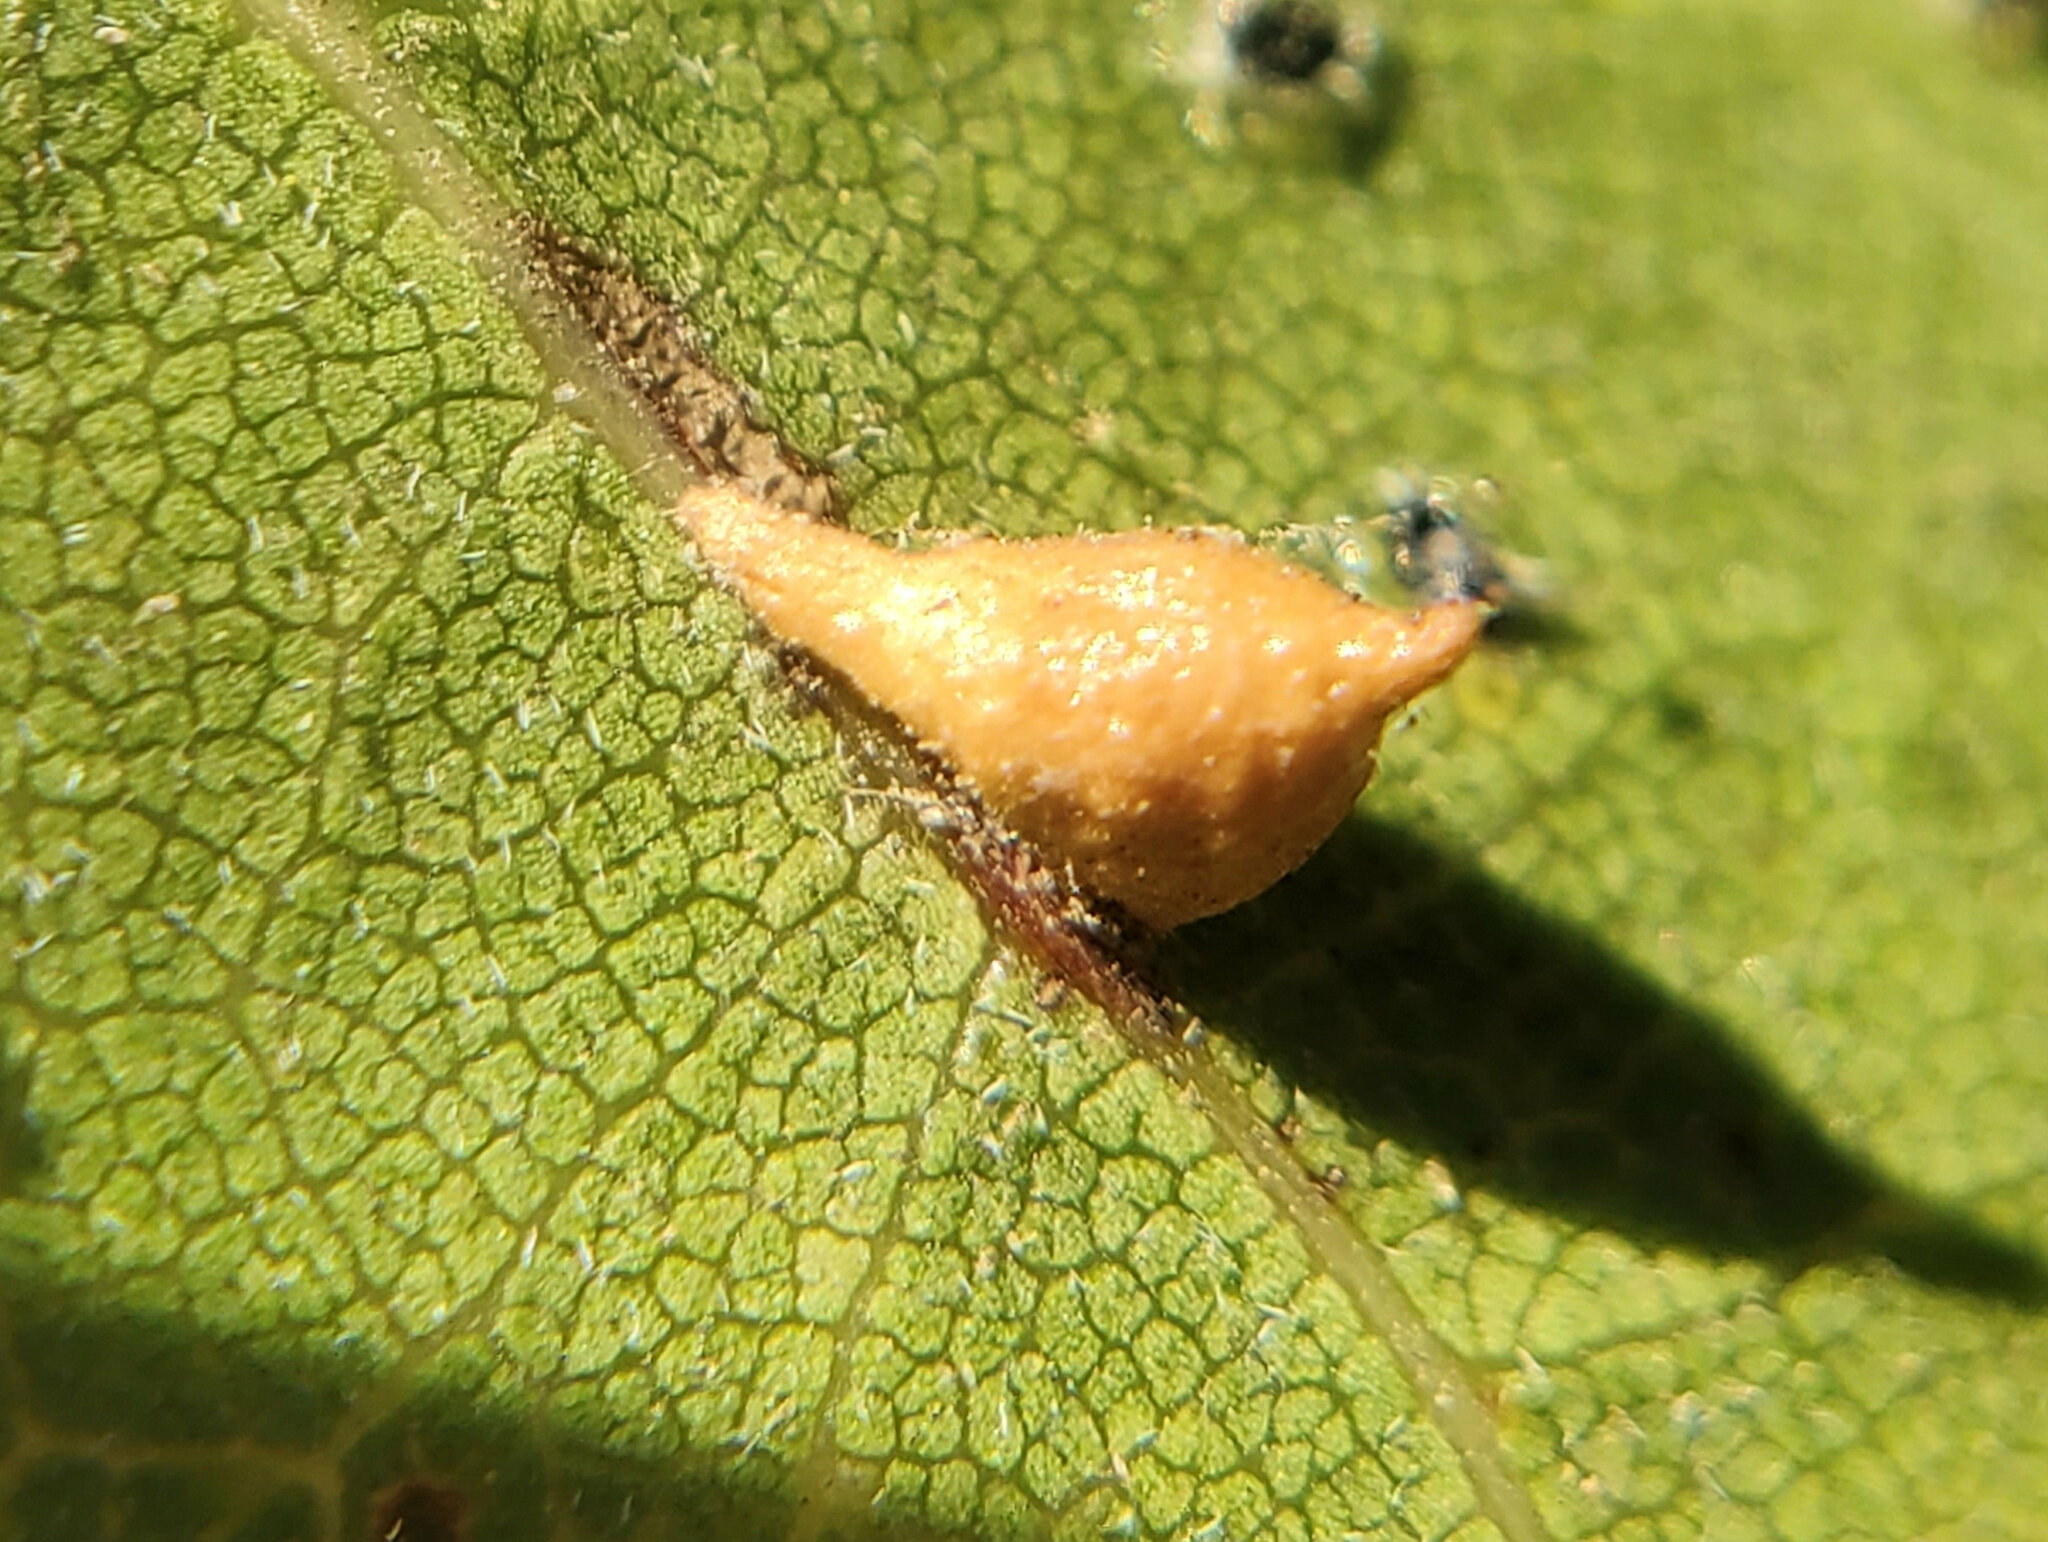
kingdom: Animalia
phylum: Arthropoda
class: Insecta
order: Hymenoptera
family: Cynipidae
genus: Dryocosmus
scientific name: Dryocosmus
